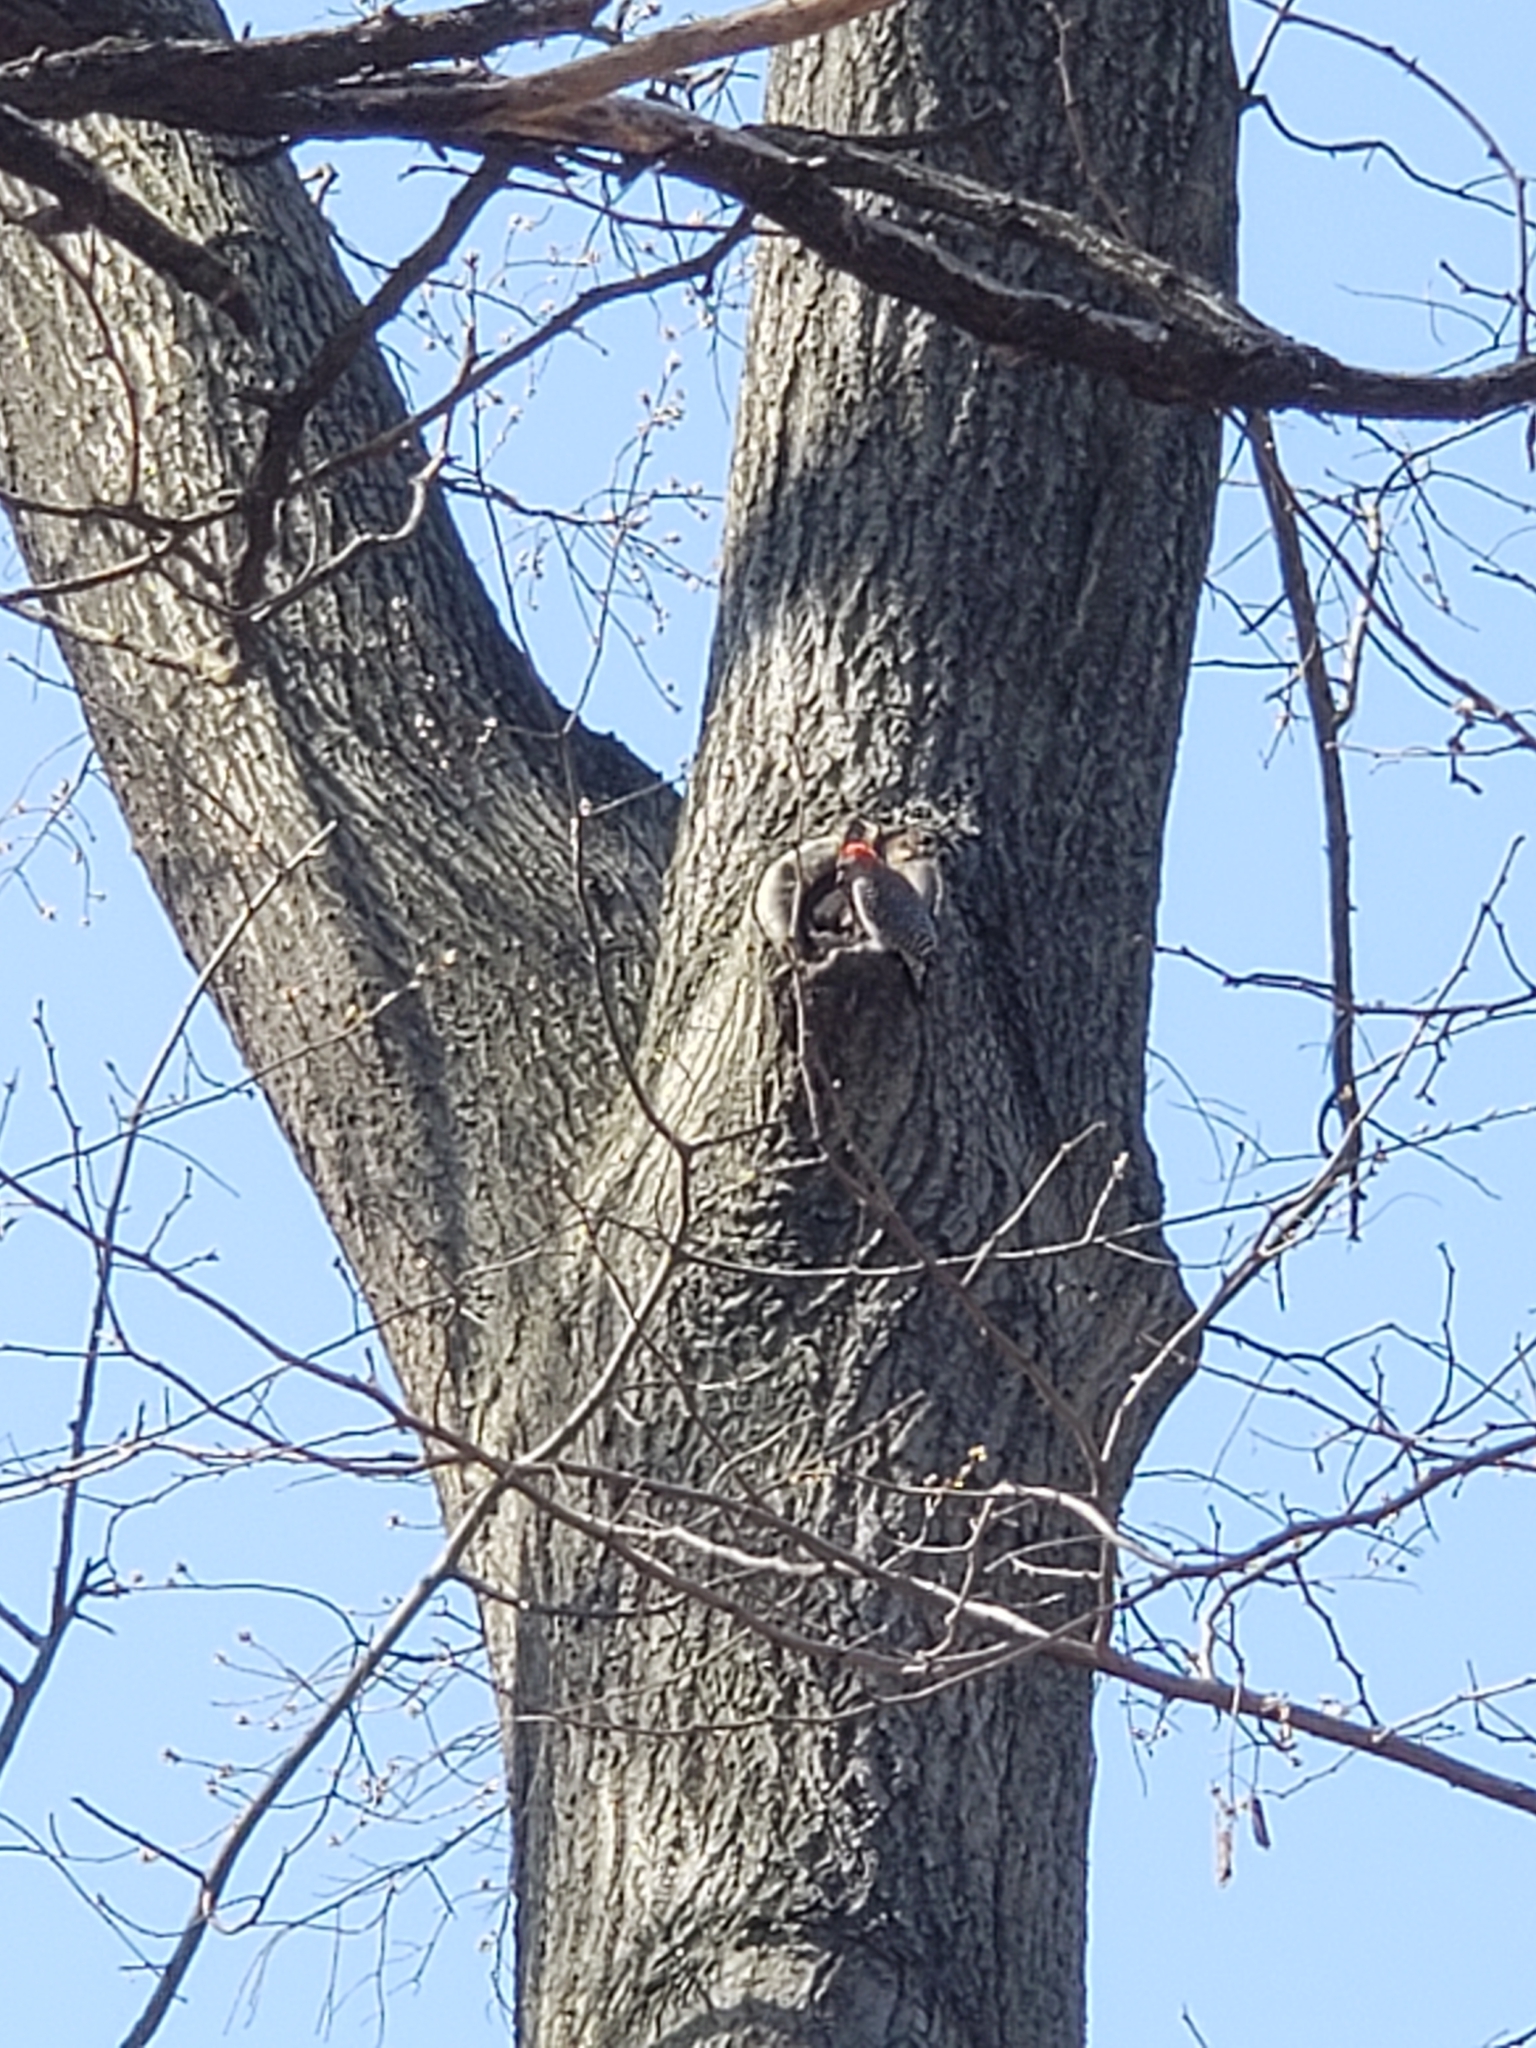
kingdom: Animalia
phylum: Chordata
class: Aves
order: Piciformes
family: Picidae
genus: Melanerpes
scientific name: Melanerpes carolinus
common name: Red-bellied woodpecker
